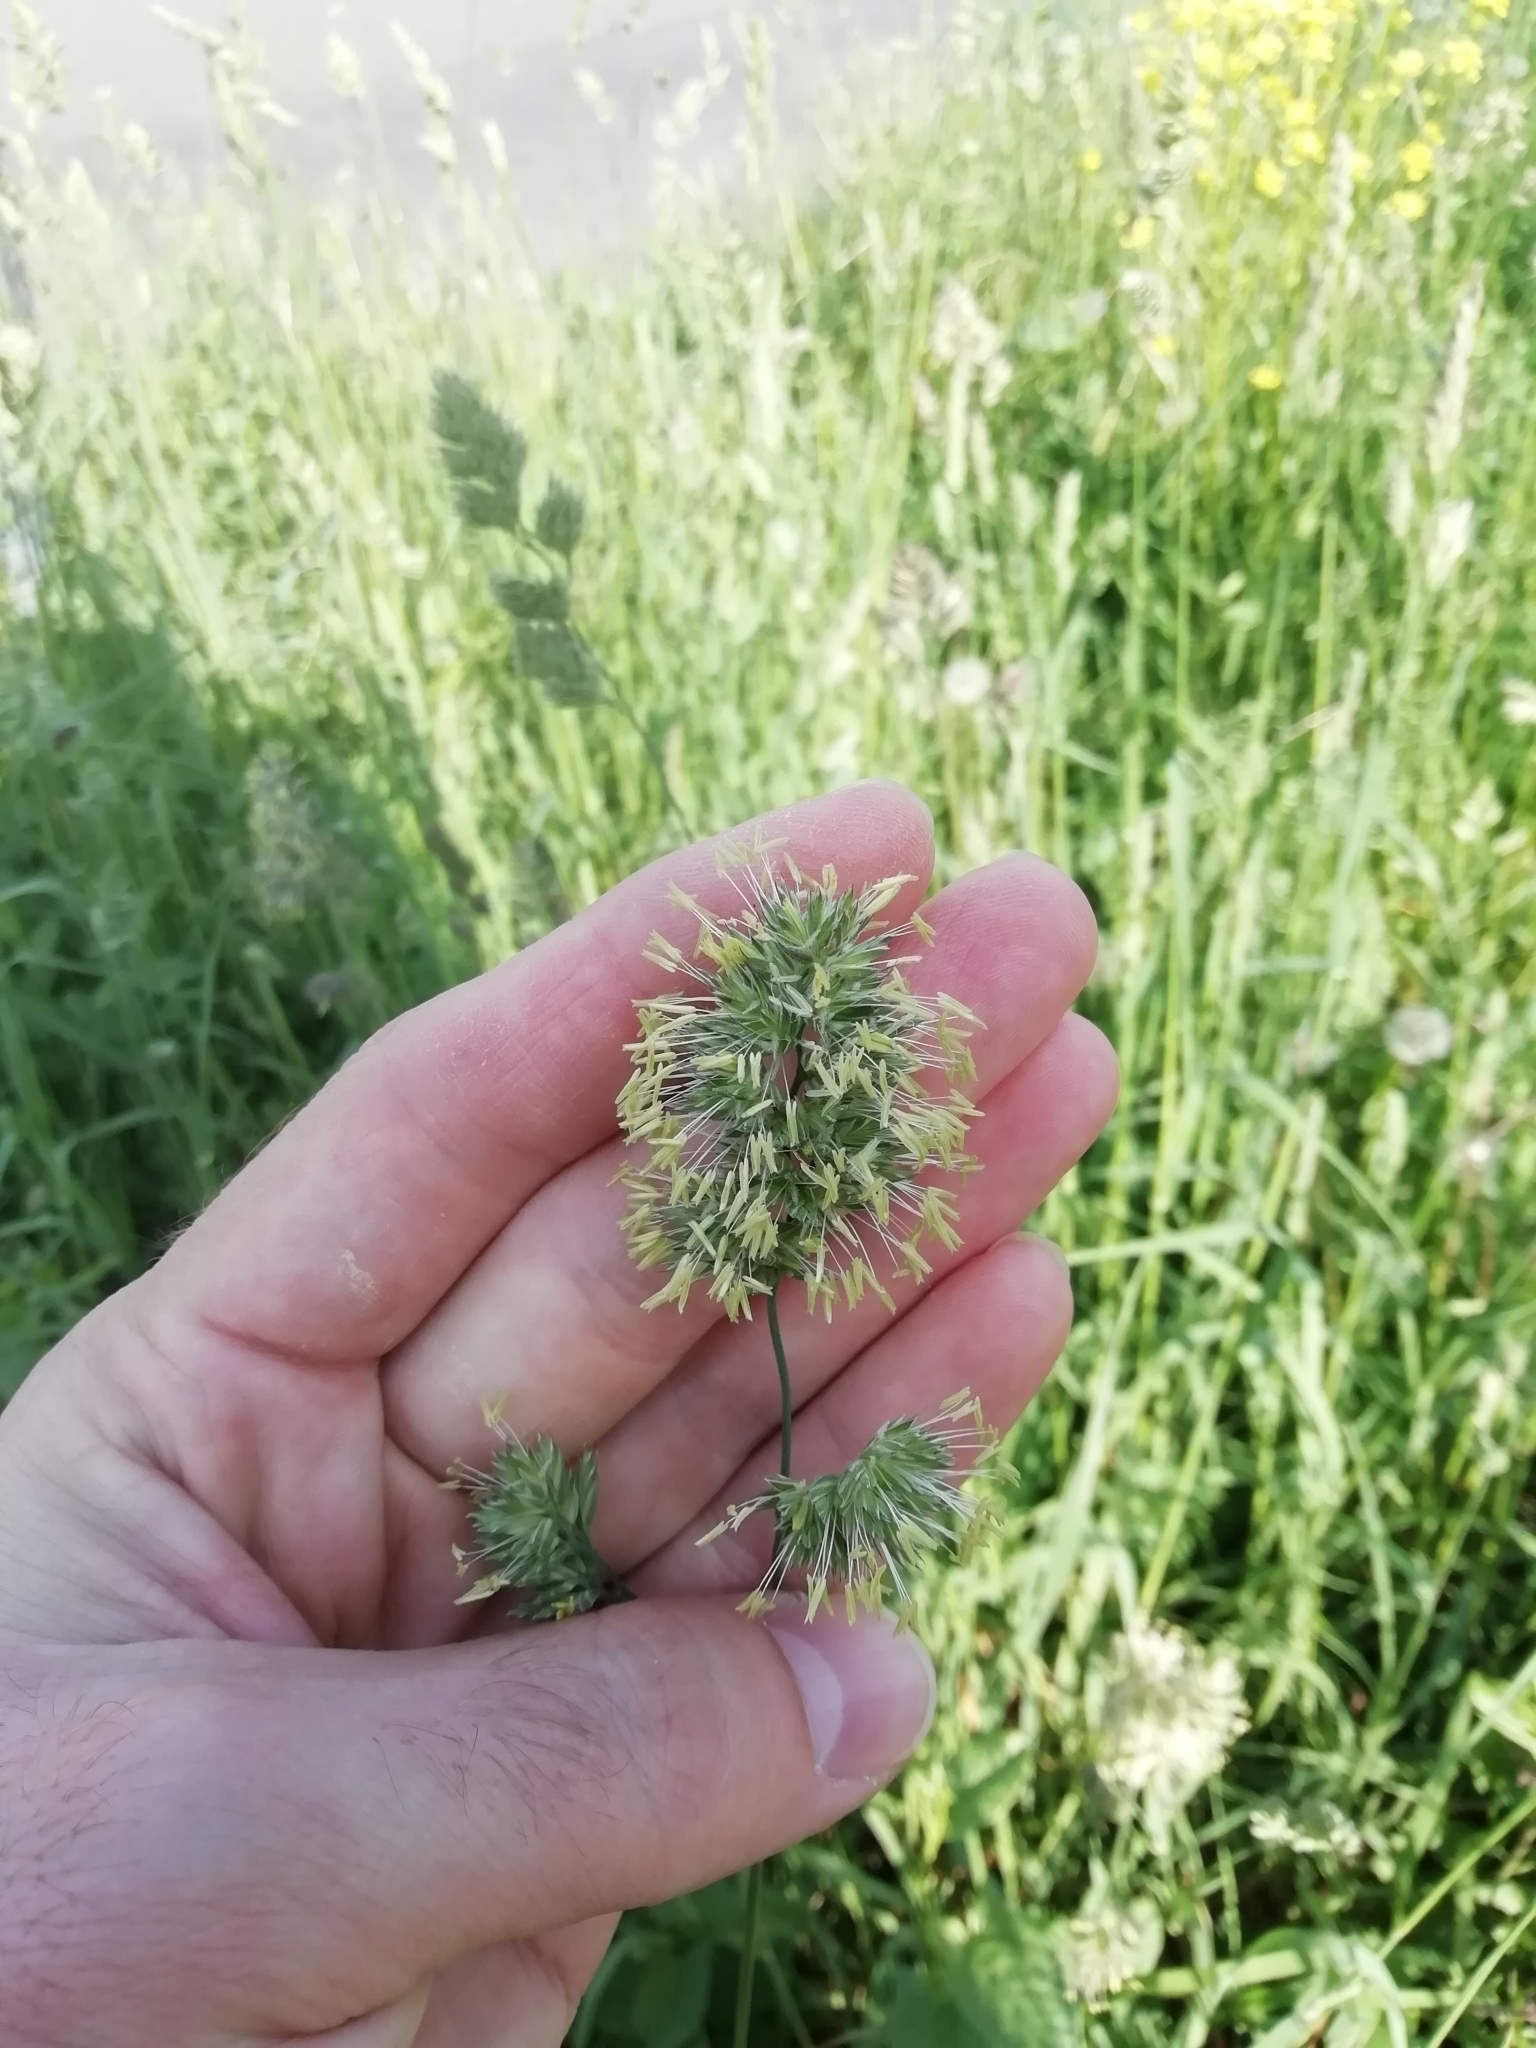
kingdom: Plantae
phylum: Tracheophyta
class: Liliopsida
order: Poales
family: Poaceae
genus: Dactylis
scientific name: Dactylis glomerata
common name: Orchardgrass
